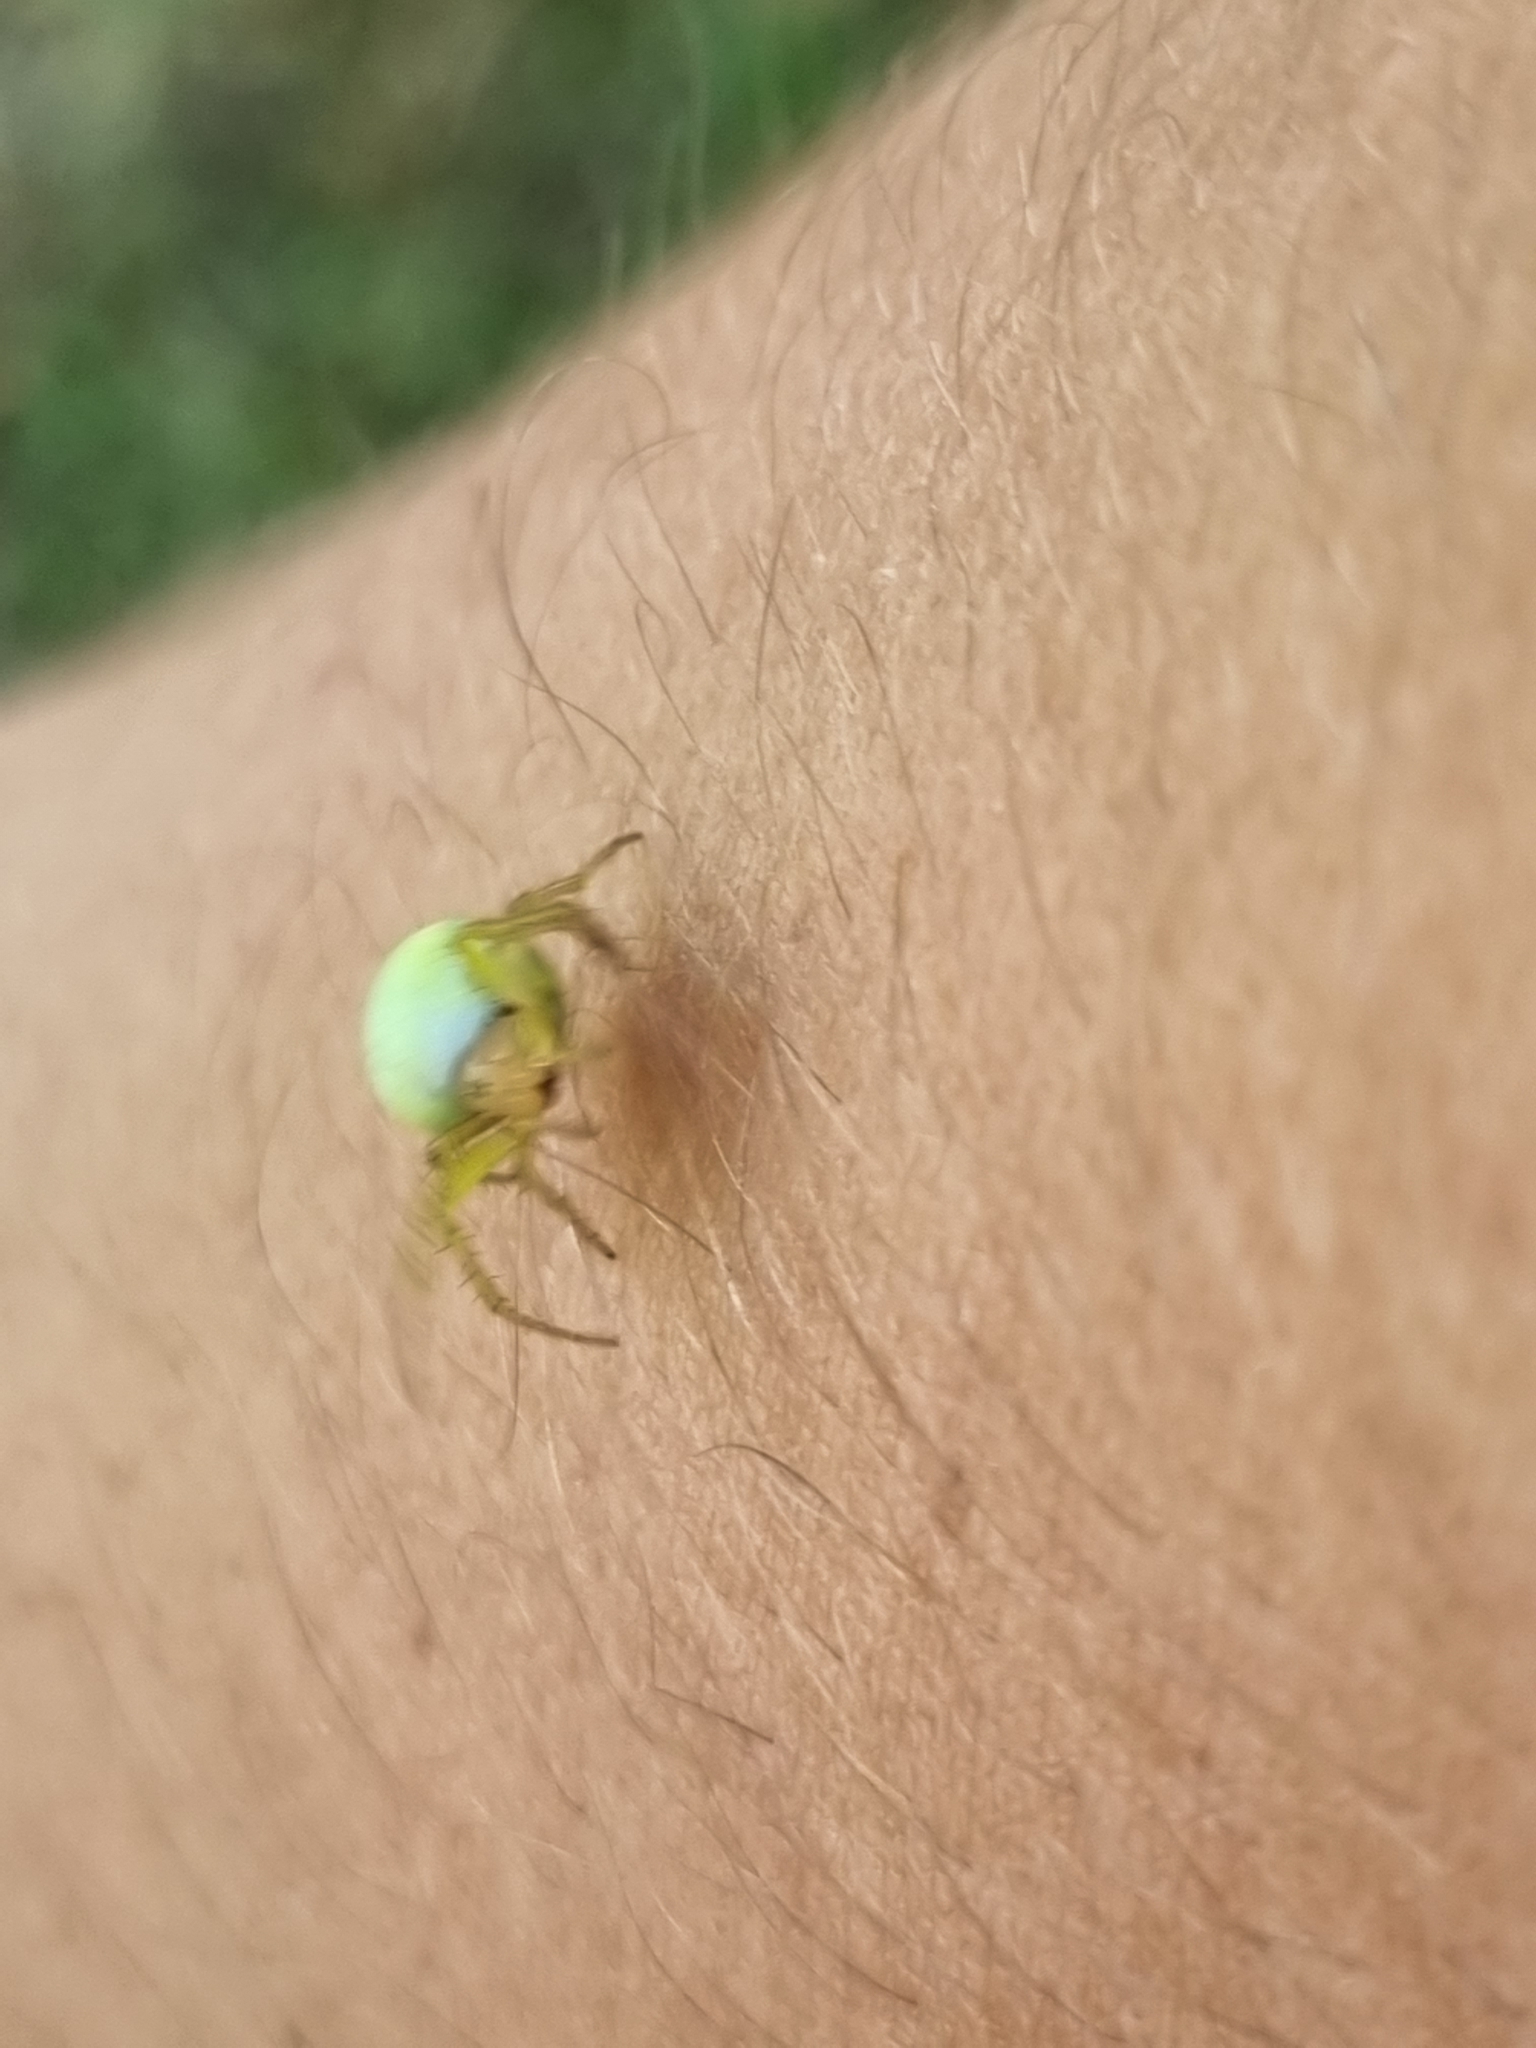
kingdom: Animalia
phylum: Arthropoda
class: Arachnida
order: Araneae
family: Araneidae
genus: Araniella
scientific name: Araniella cucurbitina
